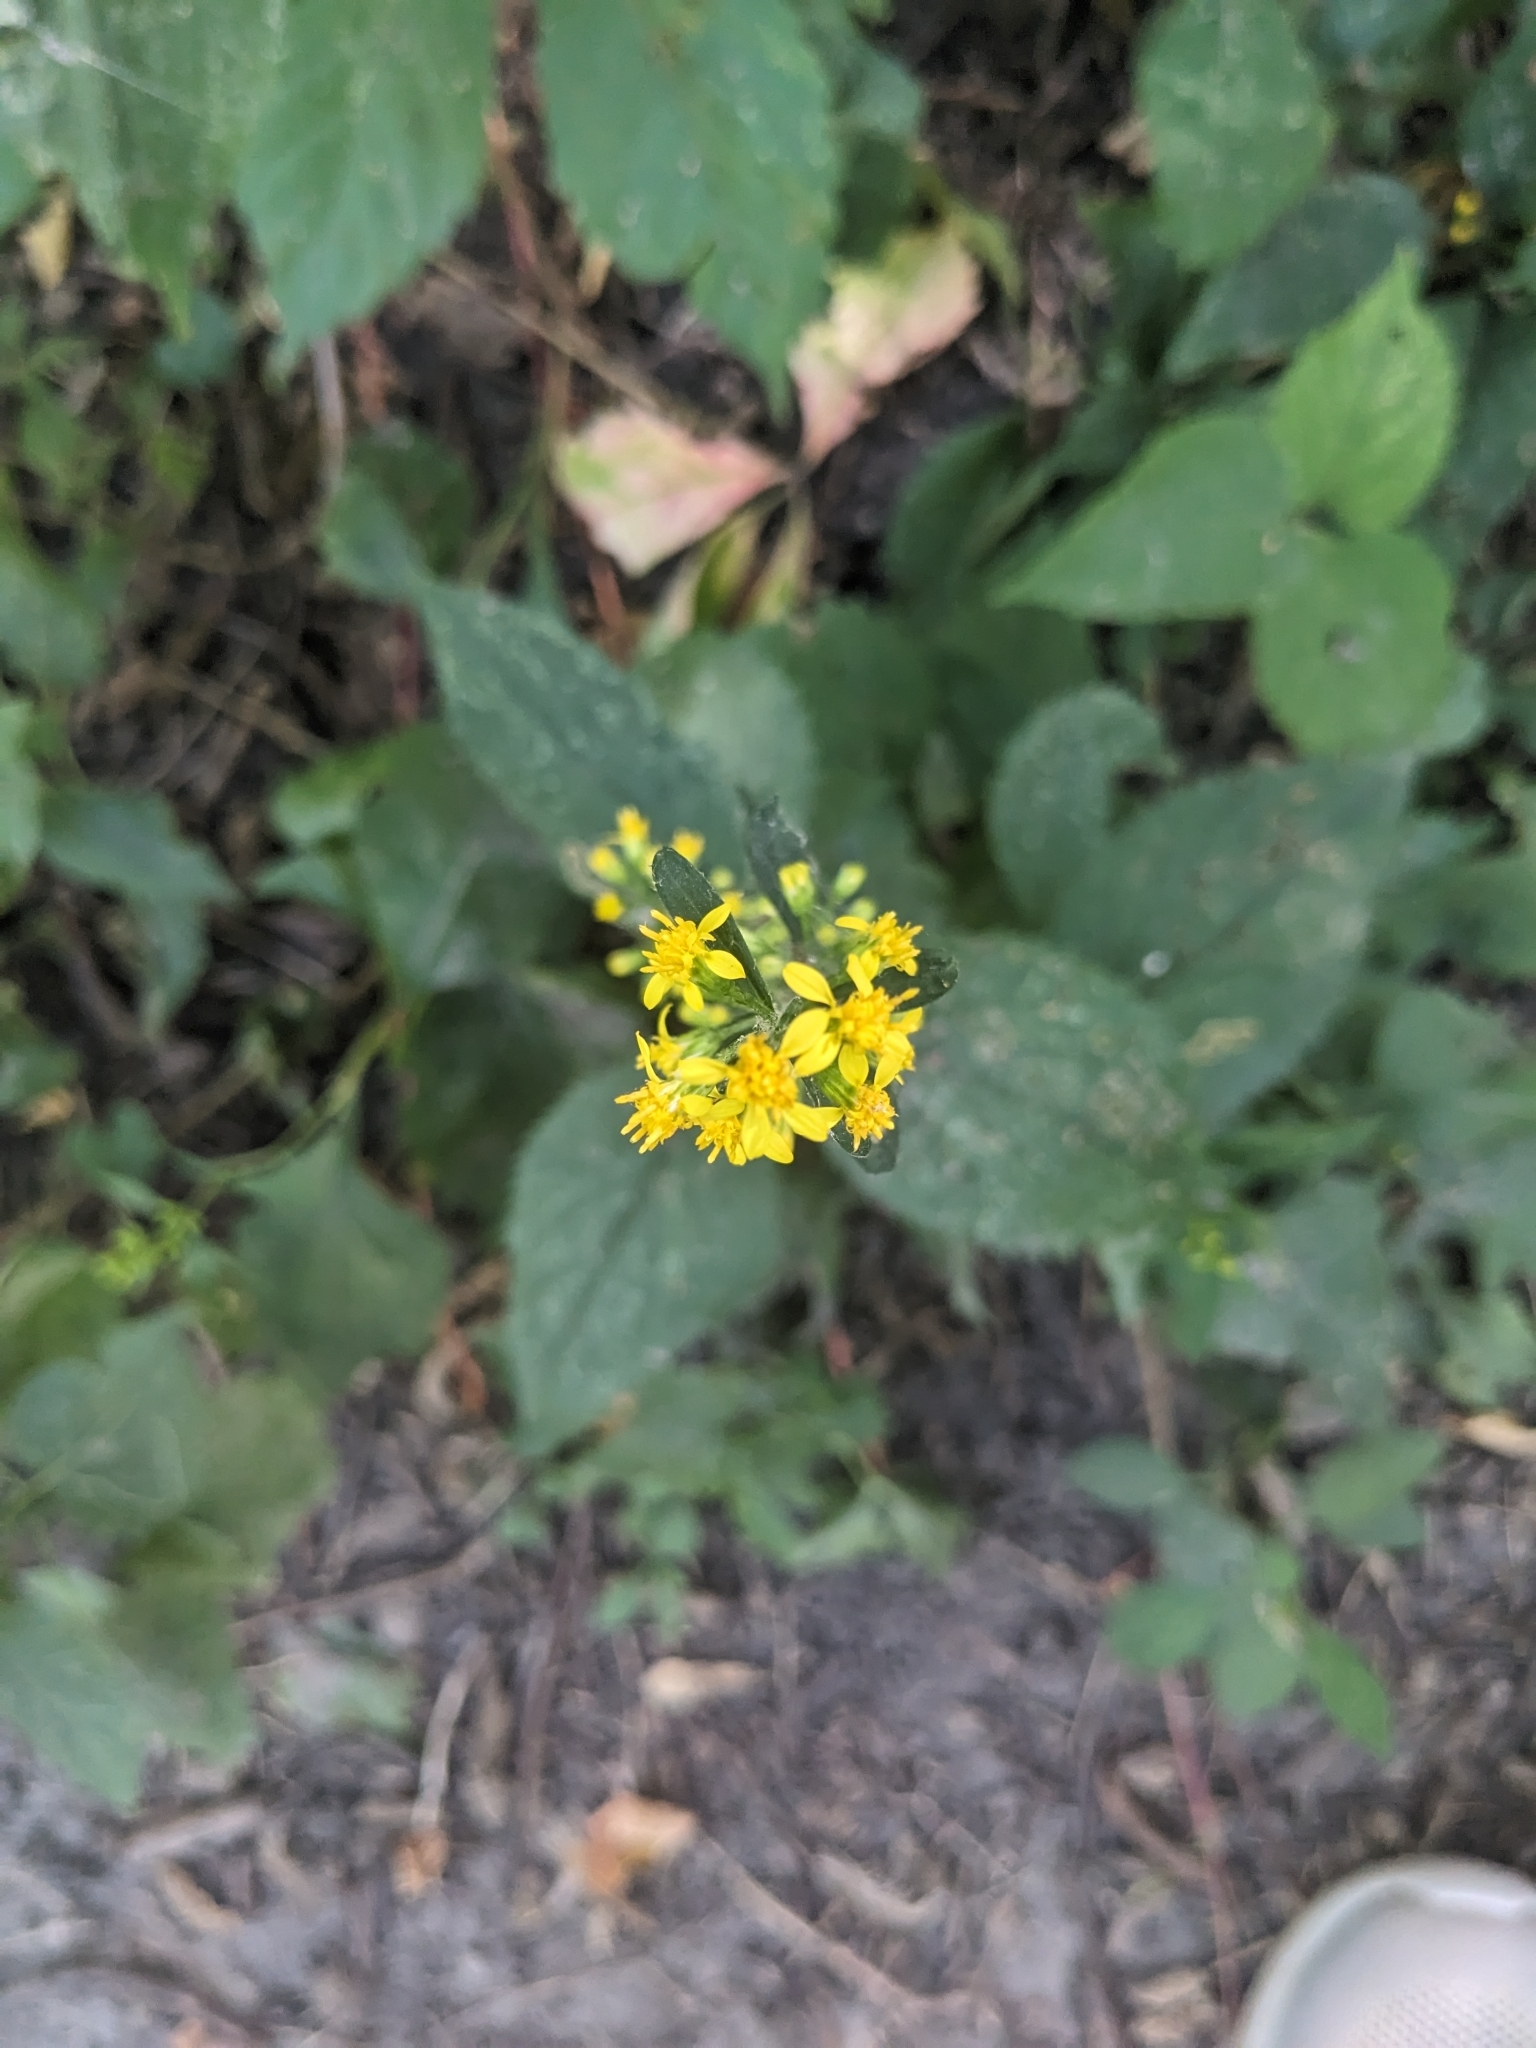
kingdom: Plantae
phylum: Tracheophyta
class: Magnoliopsida
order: Asterales
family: Asteraceae
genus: Solidago
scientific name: Solidago flexicaulis
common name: Zig-zag goldenrod
